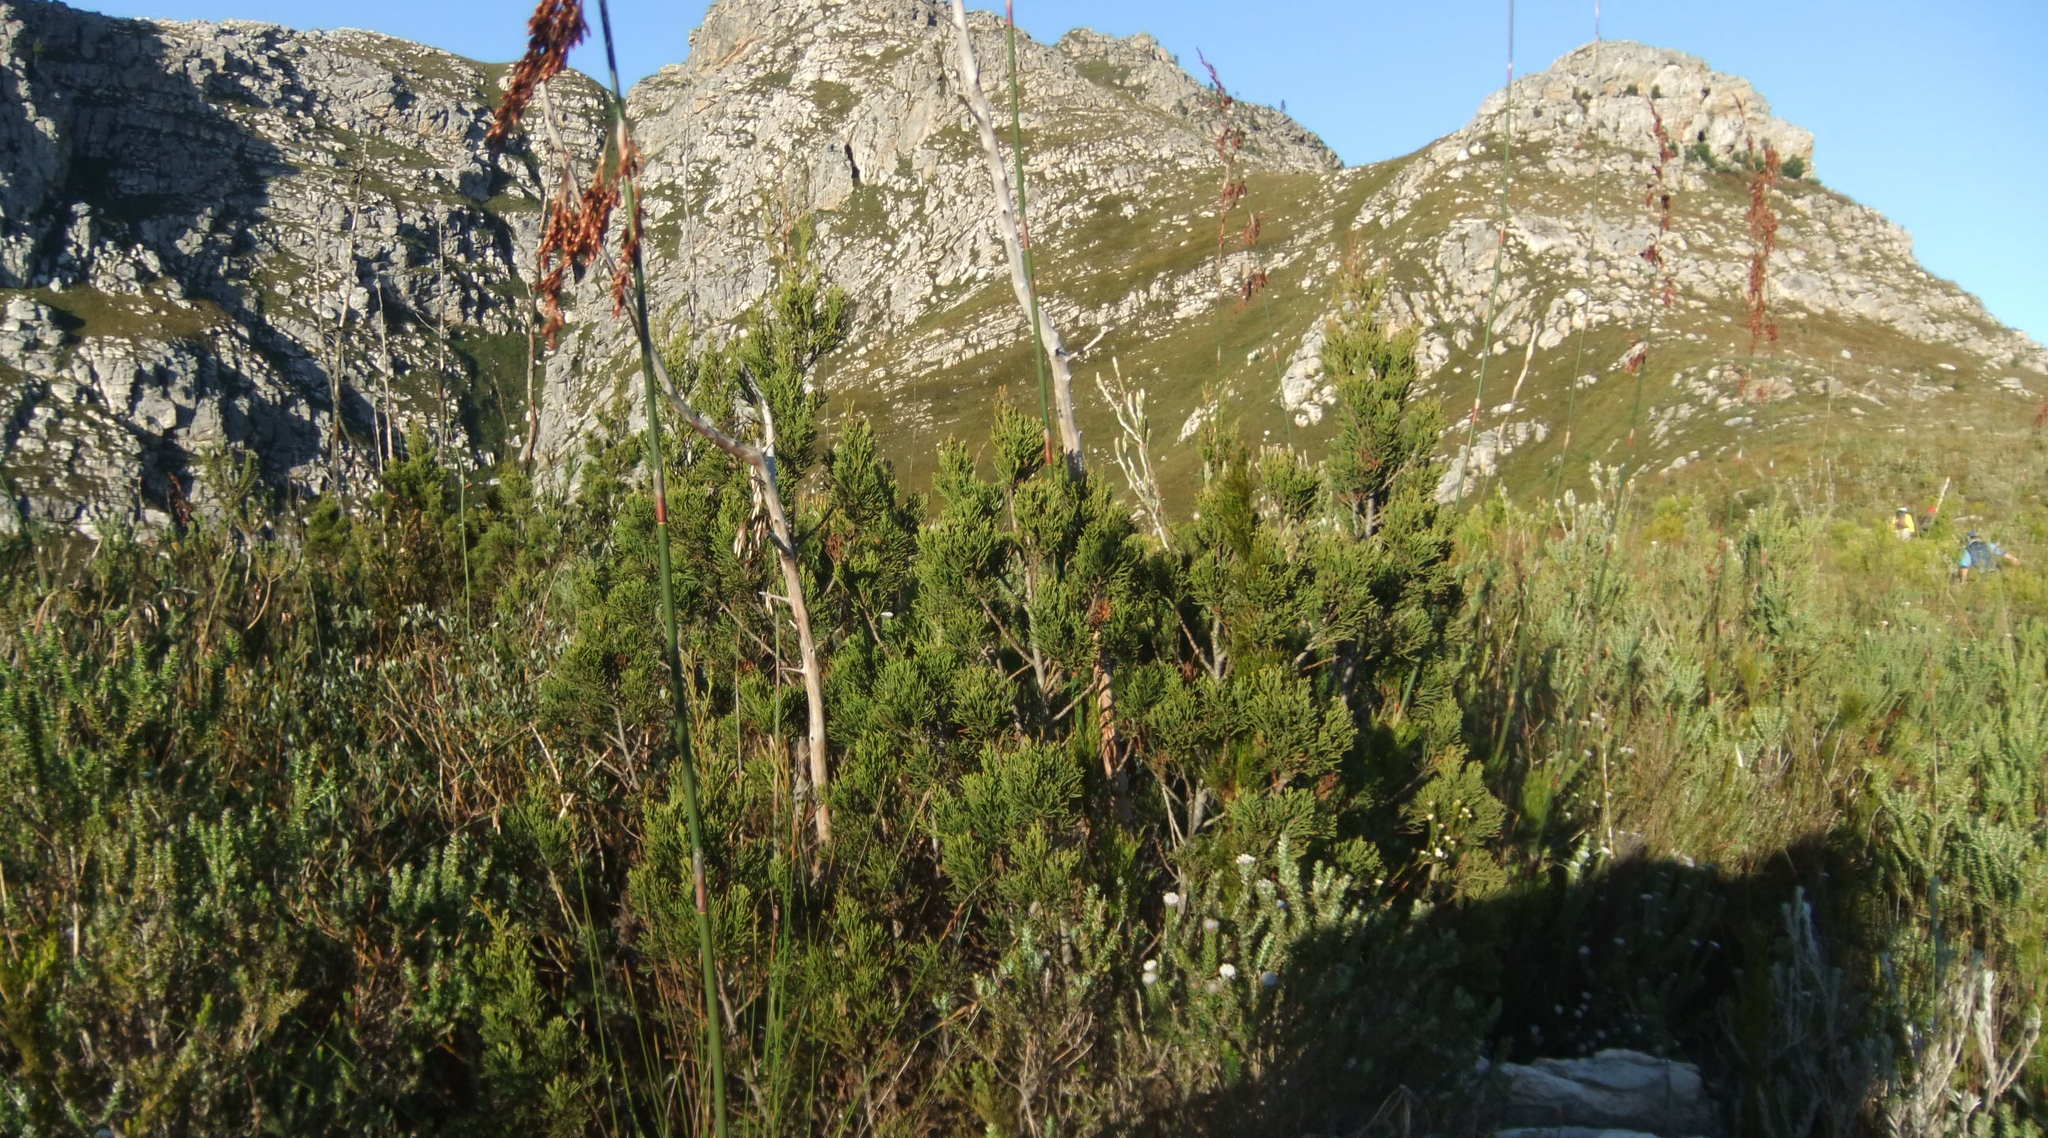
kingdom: Plantae
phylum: Tracheophyta
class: Pinopsida
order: Pinales
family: Cupressaceae
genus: Widdringtonia
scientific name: Widdringtonia nodiflora
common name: Cape cypress
